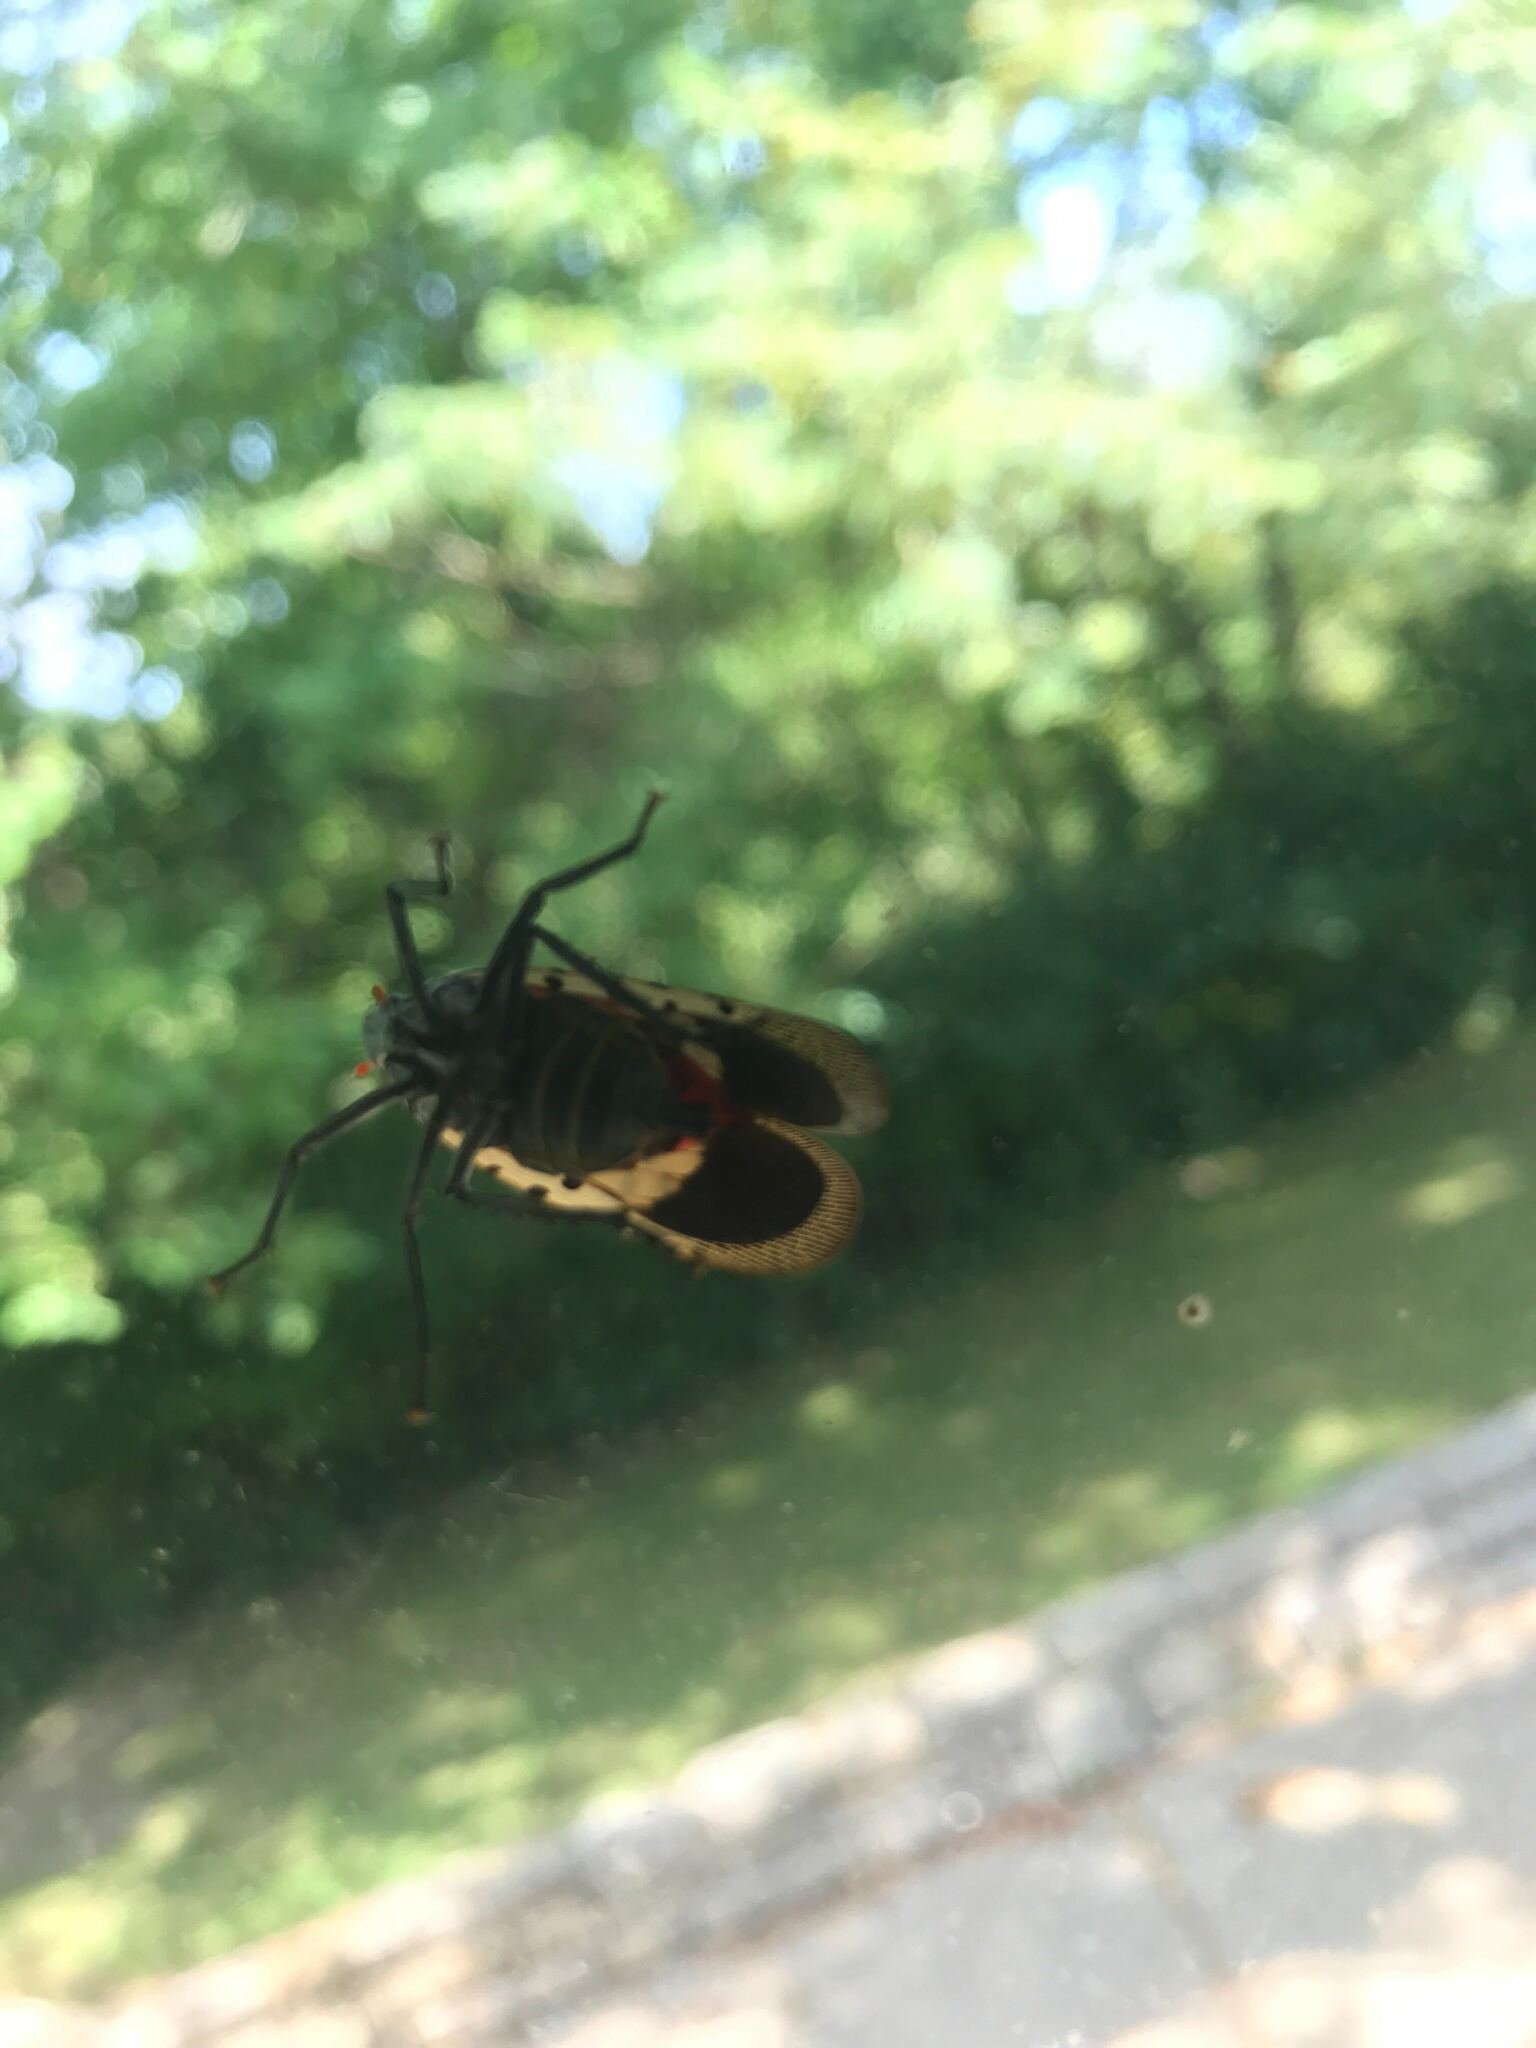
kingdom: Animalia
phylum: Arthropoda
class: Insecta
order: Hemiptera
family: Fulgoridae
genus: Lycorma
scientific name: Lycorma delicatula
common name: Spotted lanternfly
